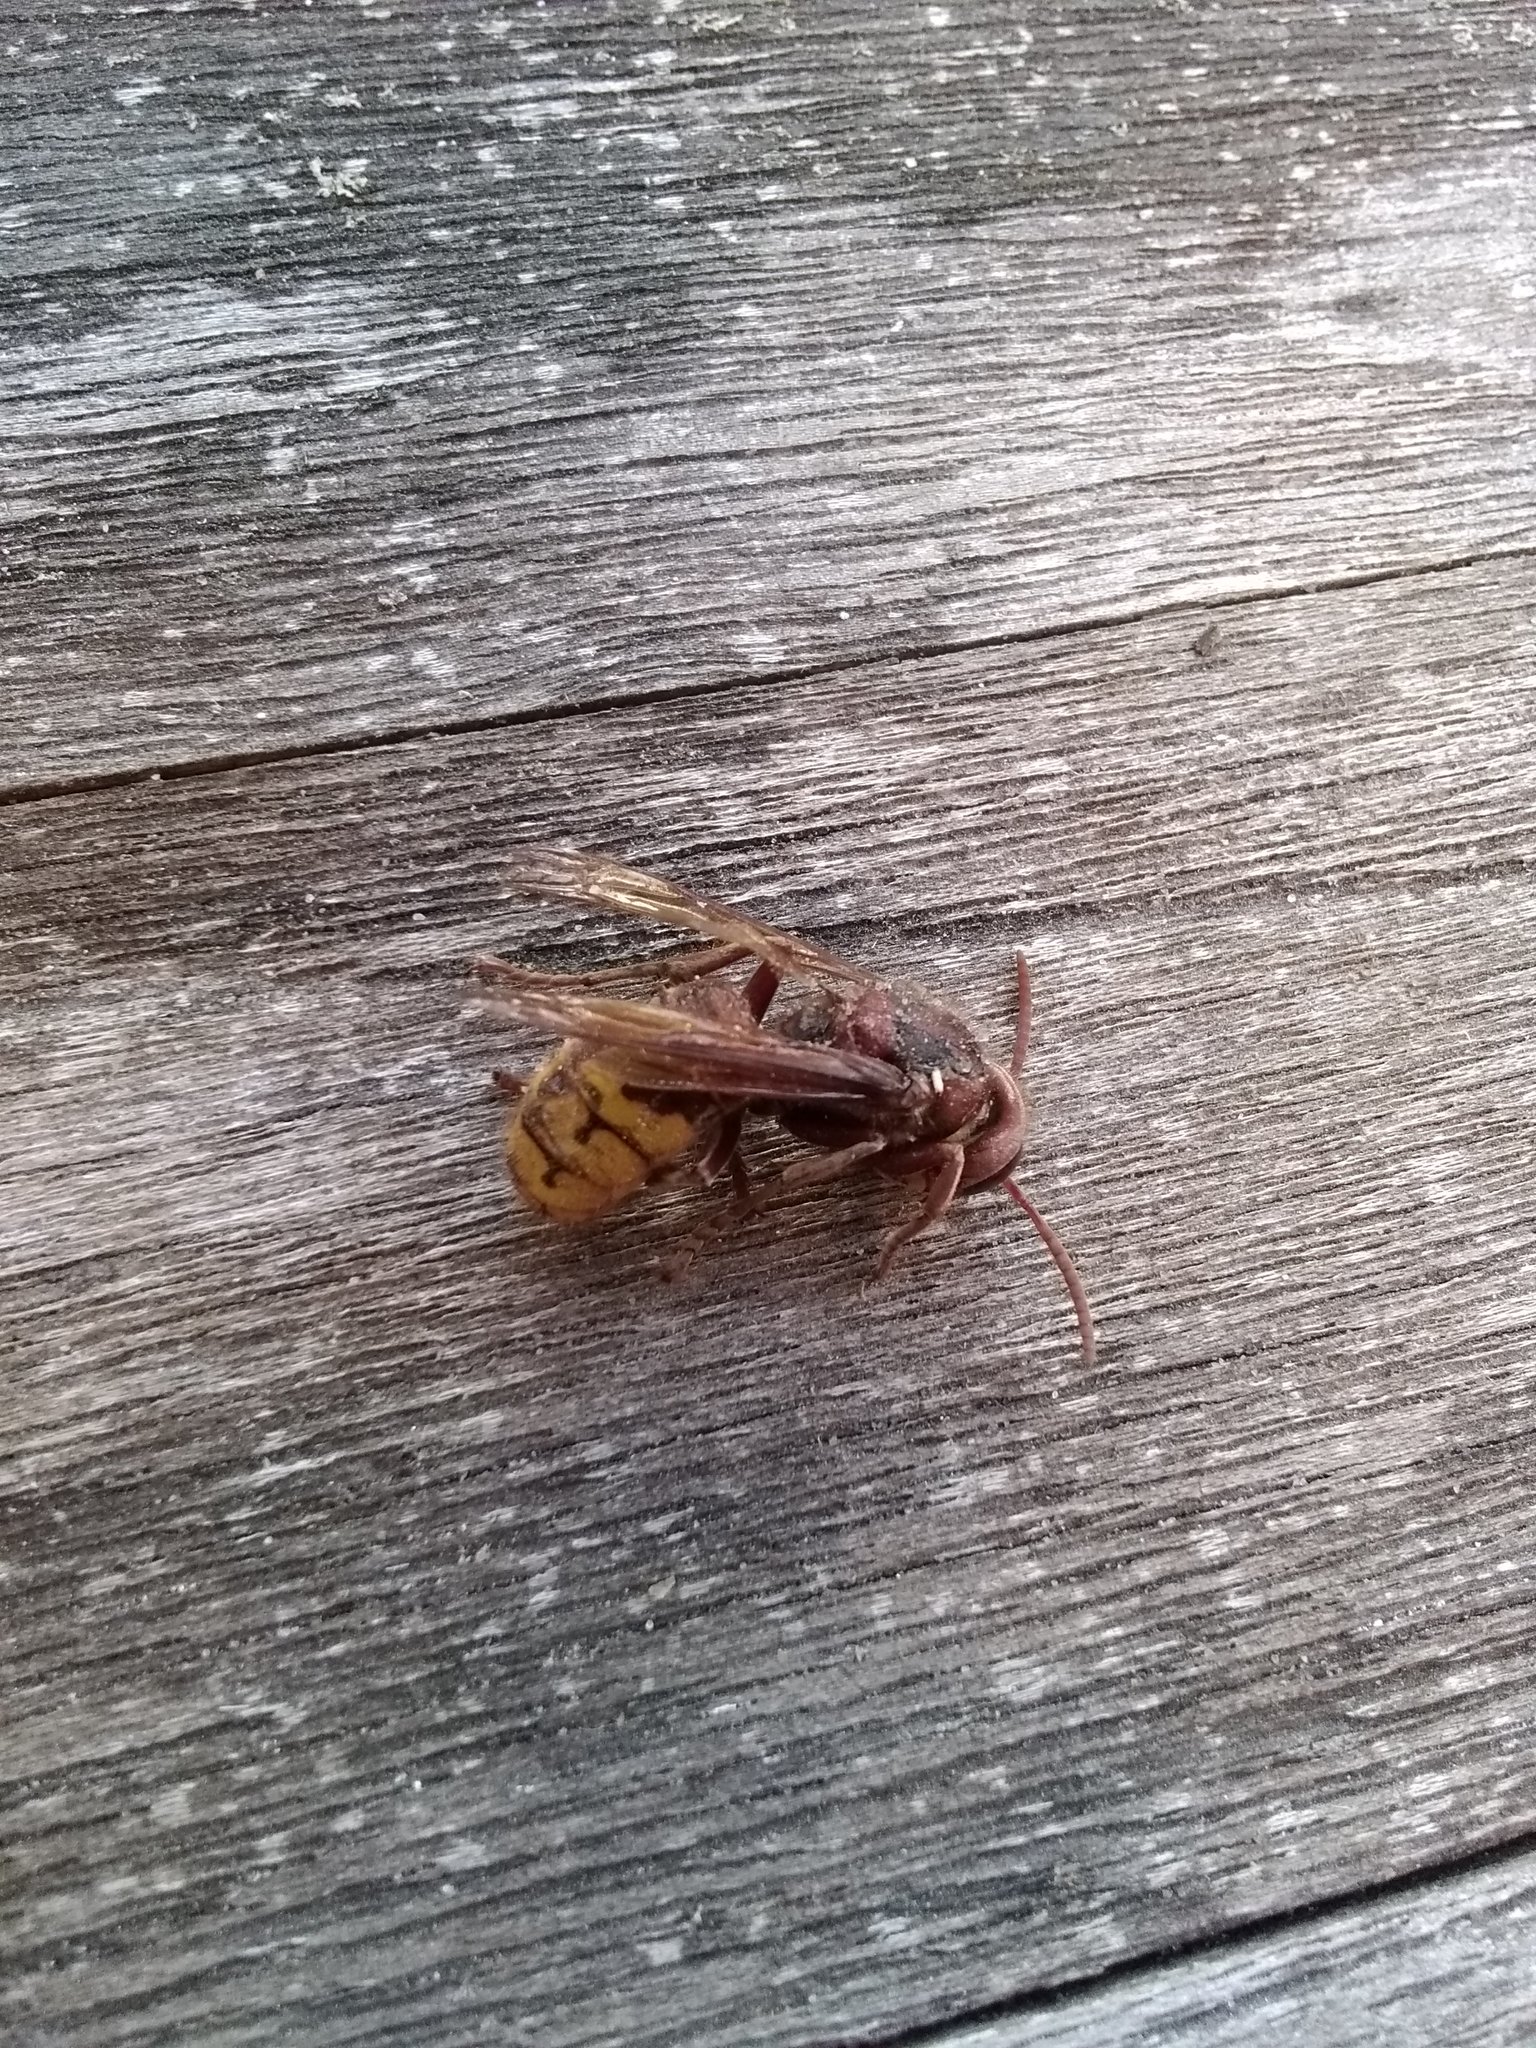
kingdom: Animalia
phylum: Arthropoda
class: Insecta
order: Hymenoptera
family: Vespidae
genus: Vespa
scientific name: Vespa crabro
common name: Hornet
